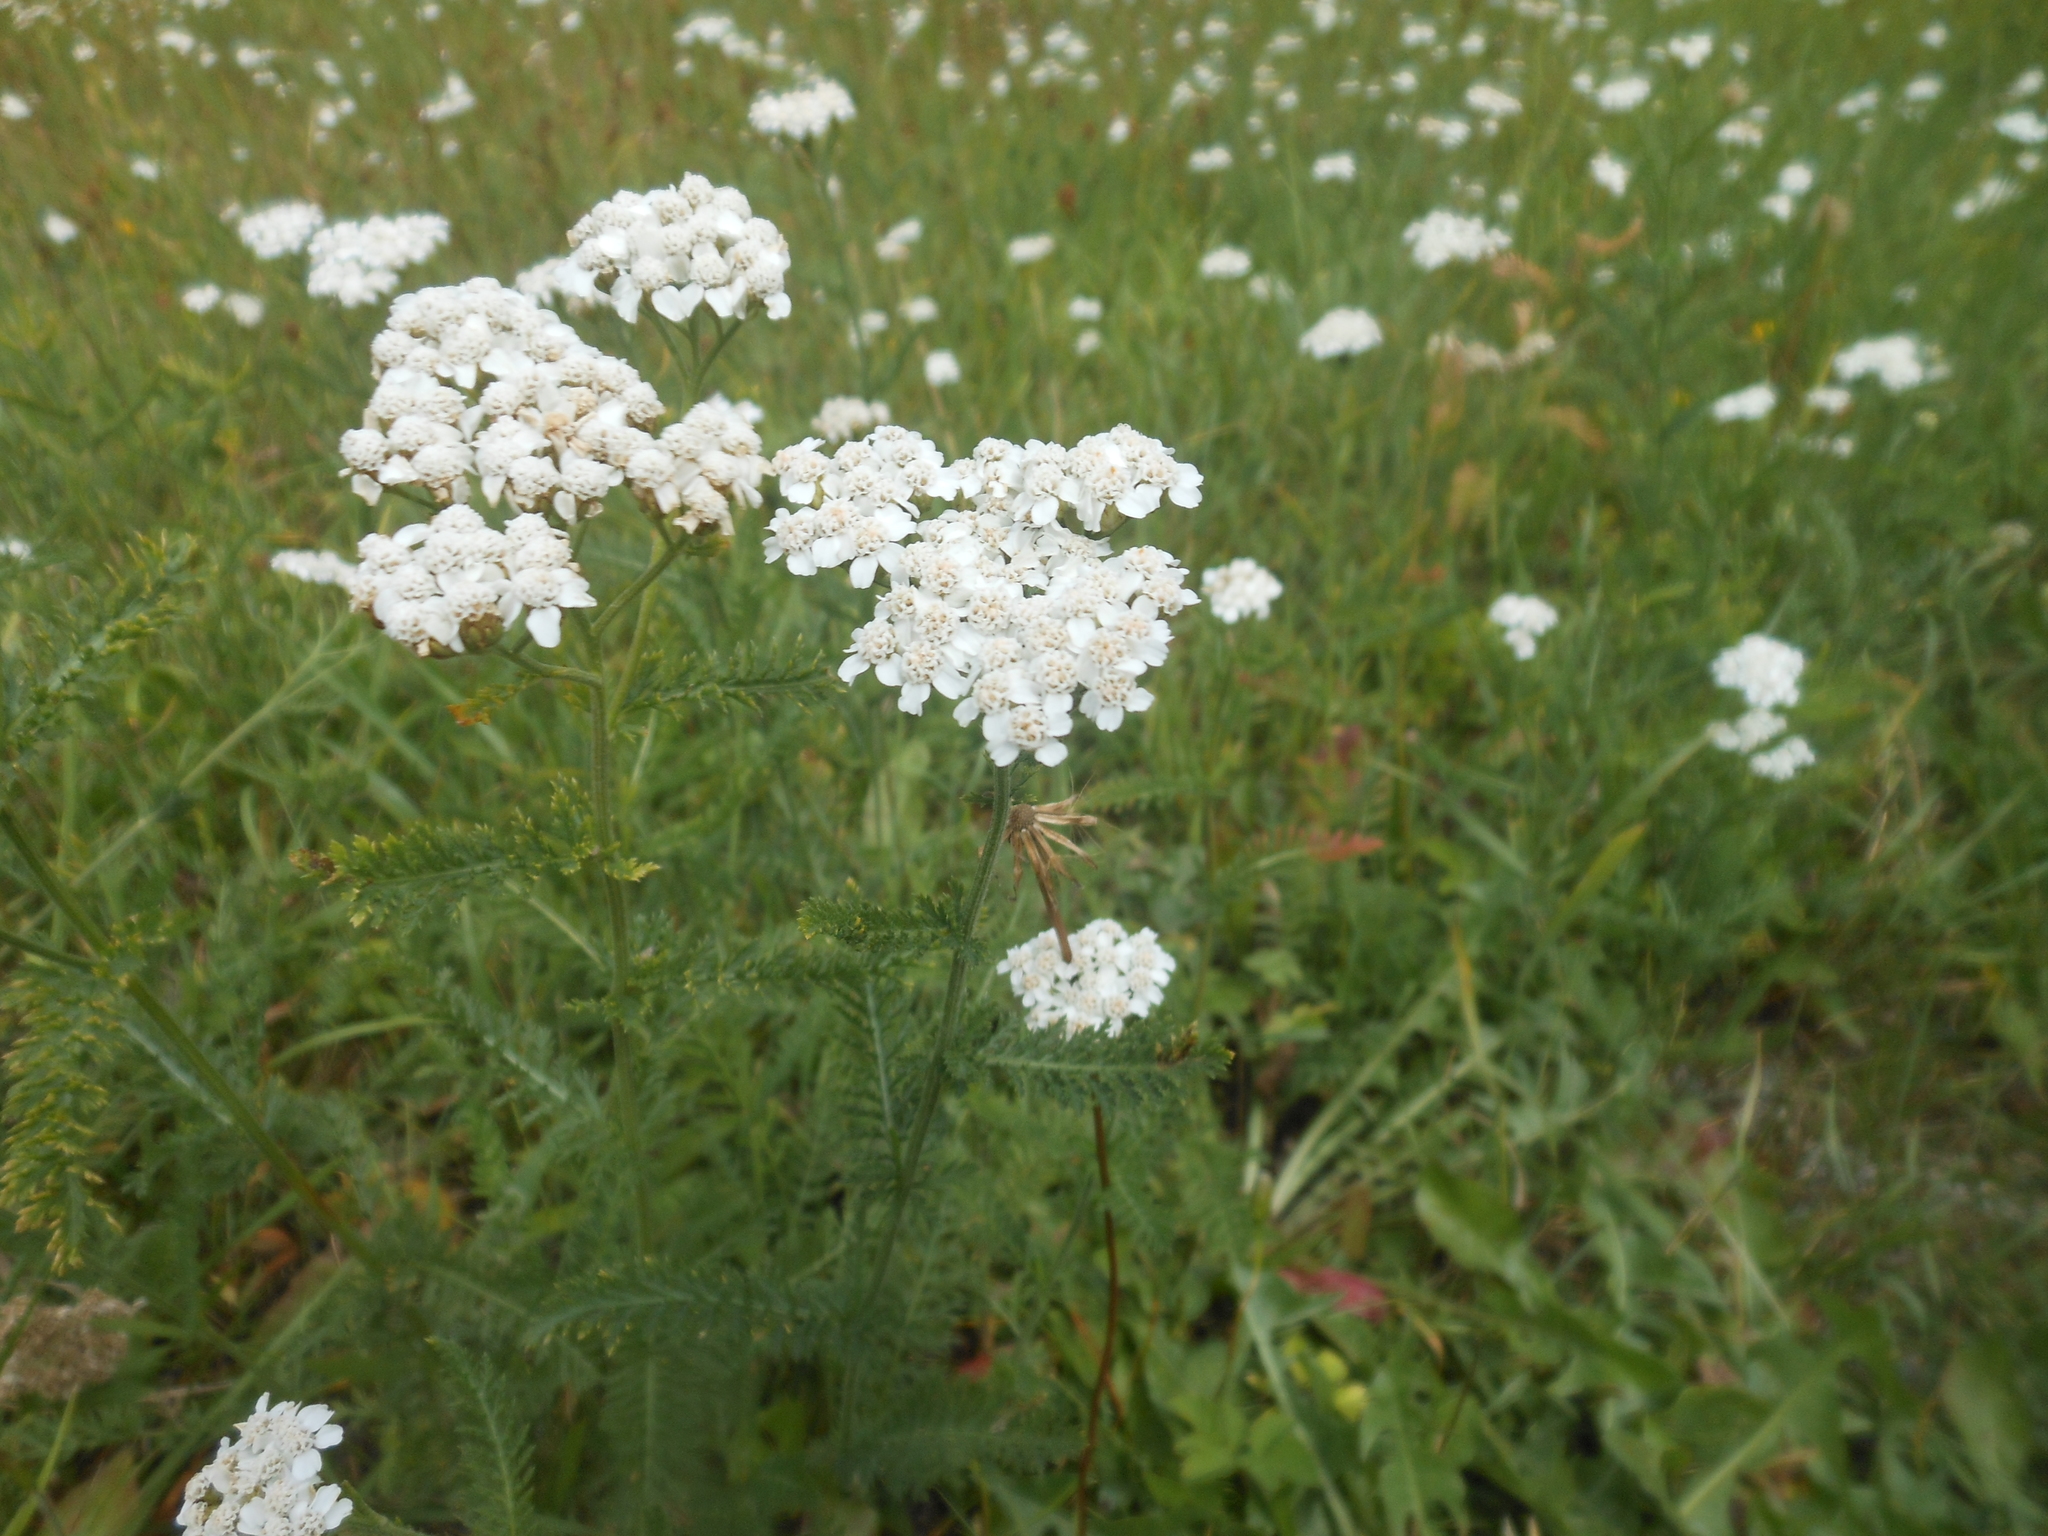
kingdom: Plantae
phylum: Tracheophyta
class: Magnoliopsida
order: Asterales
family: Asteraceae
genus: Achillea
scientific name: Achillea
